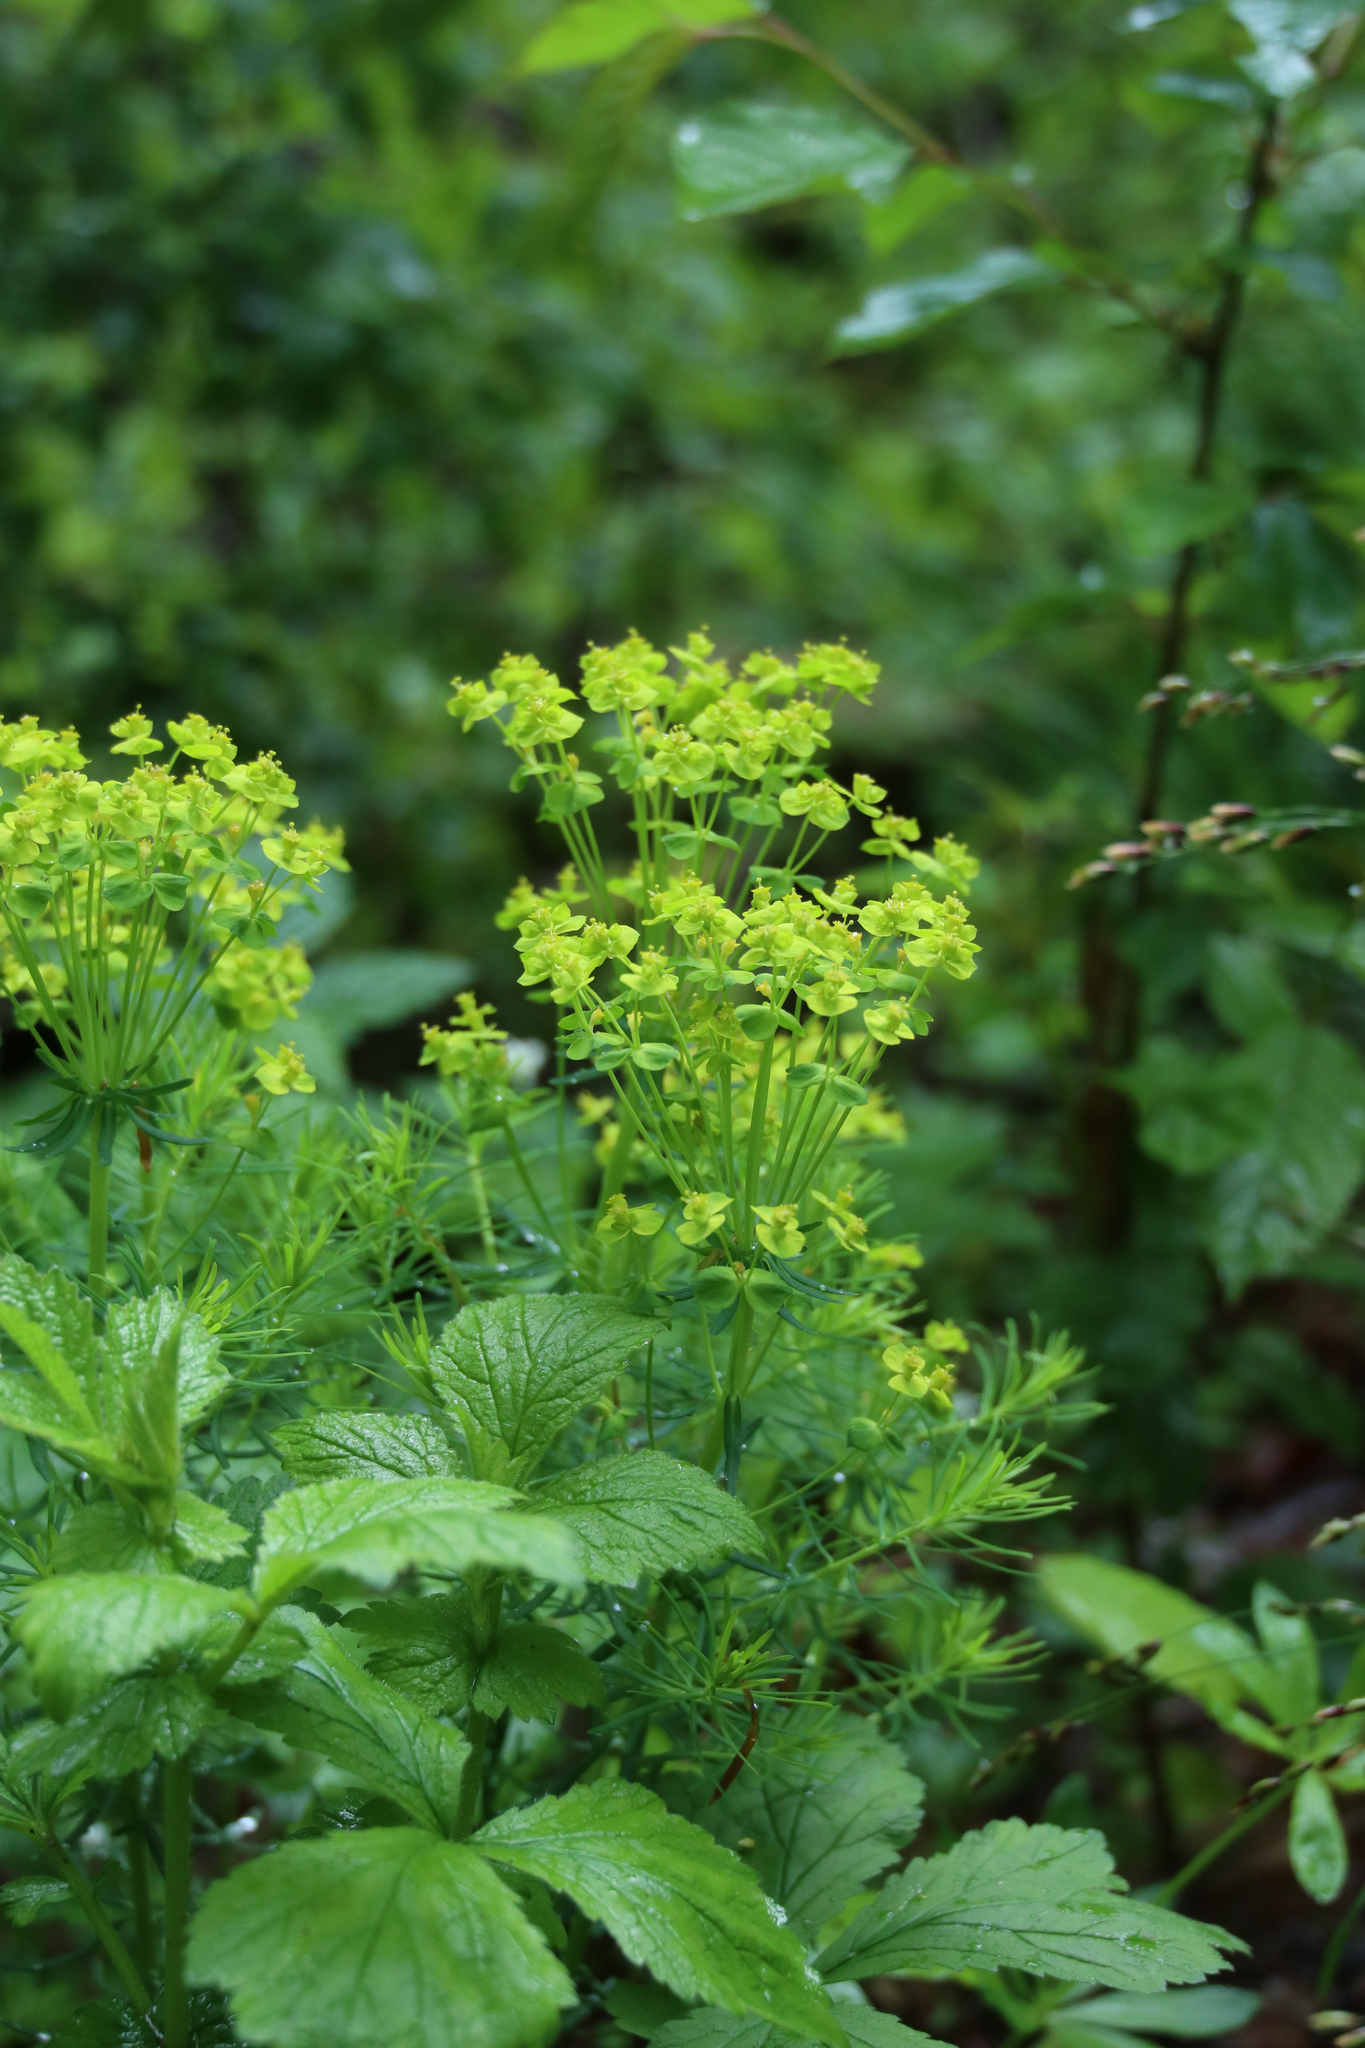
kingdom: Plantae
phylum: Tracheophyta
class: Magnoliopsida
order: Malpighiales
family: Euphorbiaceae
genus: Euphorbia
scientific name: Euphorbia cyparissias
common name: Cypress spurge
